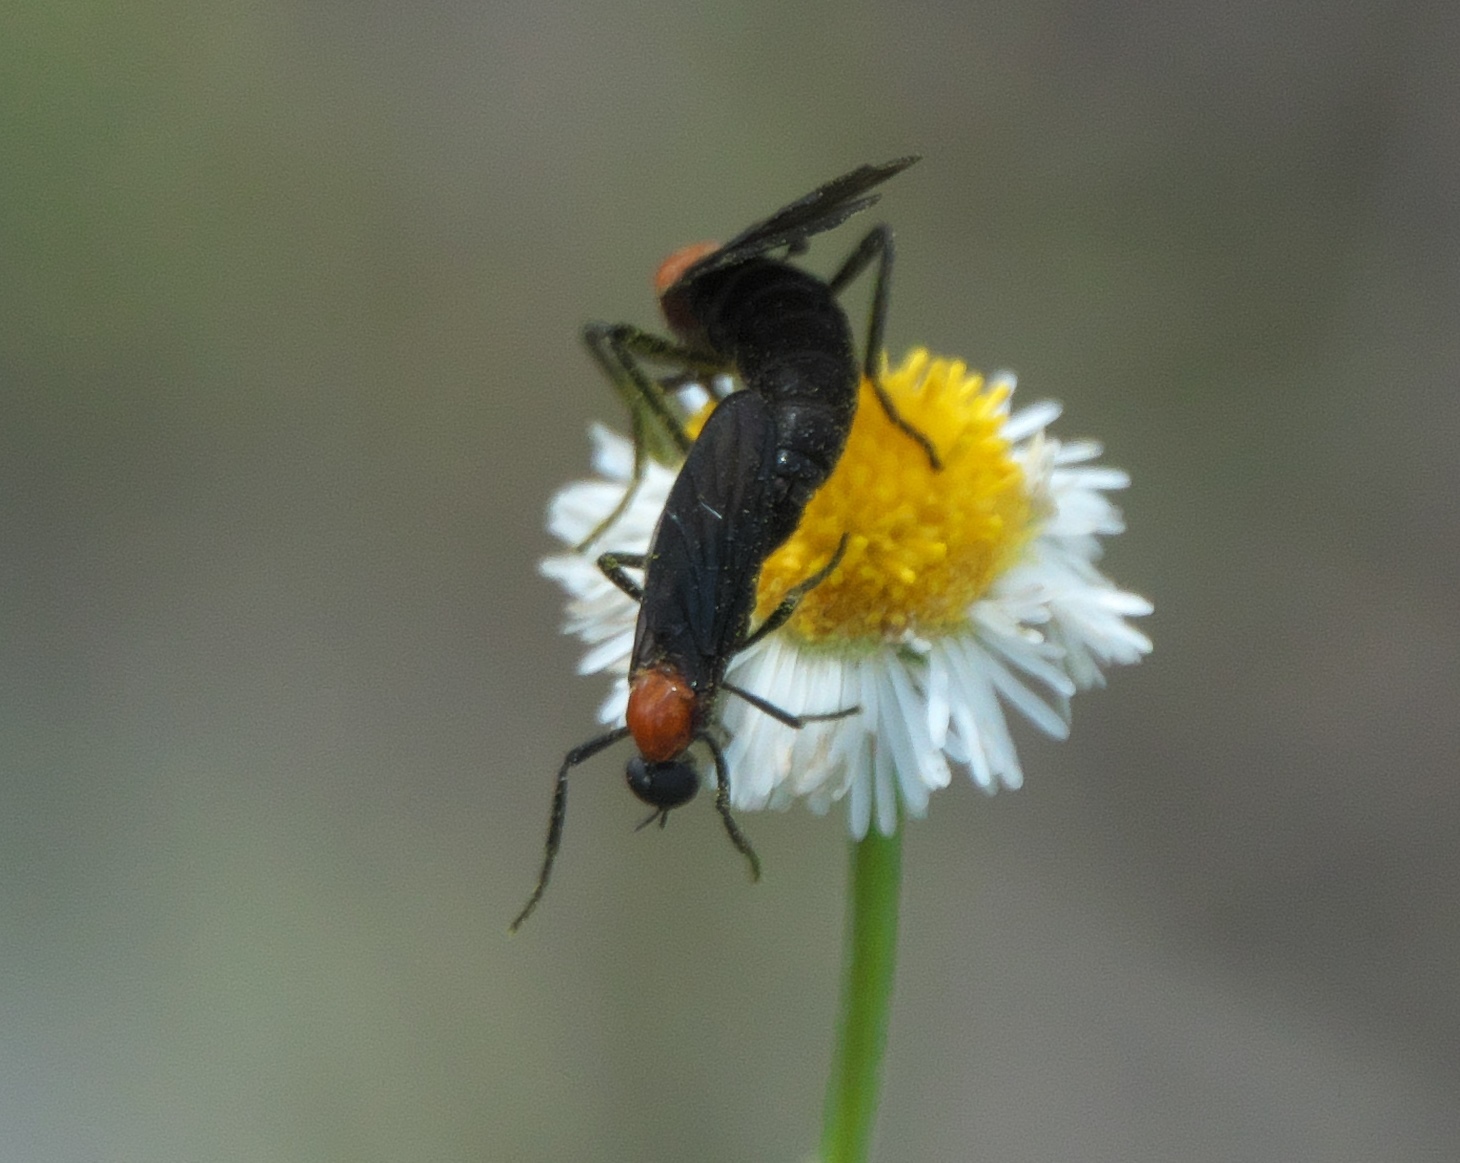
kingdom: Animalia
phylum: Arthropoda
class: Insecta
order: Diptera
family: Bibionidae
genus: Plecia
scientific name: Plecia nearctica
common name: March fly
